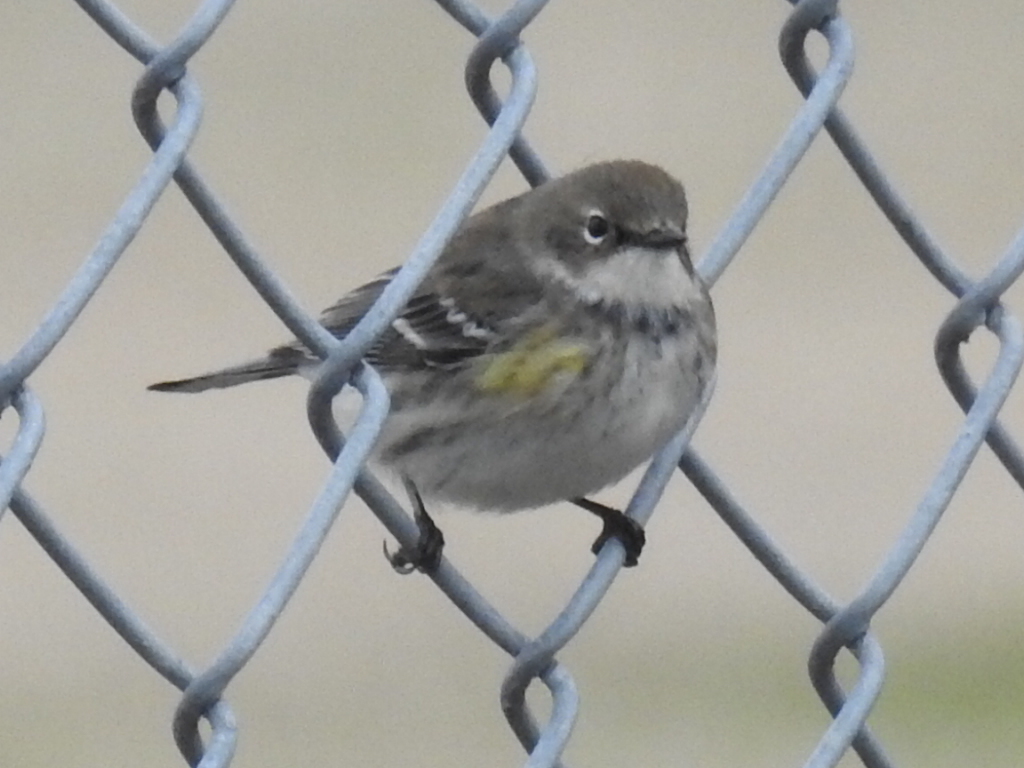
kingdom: Animalia
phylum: Chordata
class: Aves
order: Passeriformes
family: Parulidae
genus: Setophaga
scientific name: Setophaga coronata
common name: Myrtle warbler
